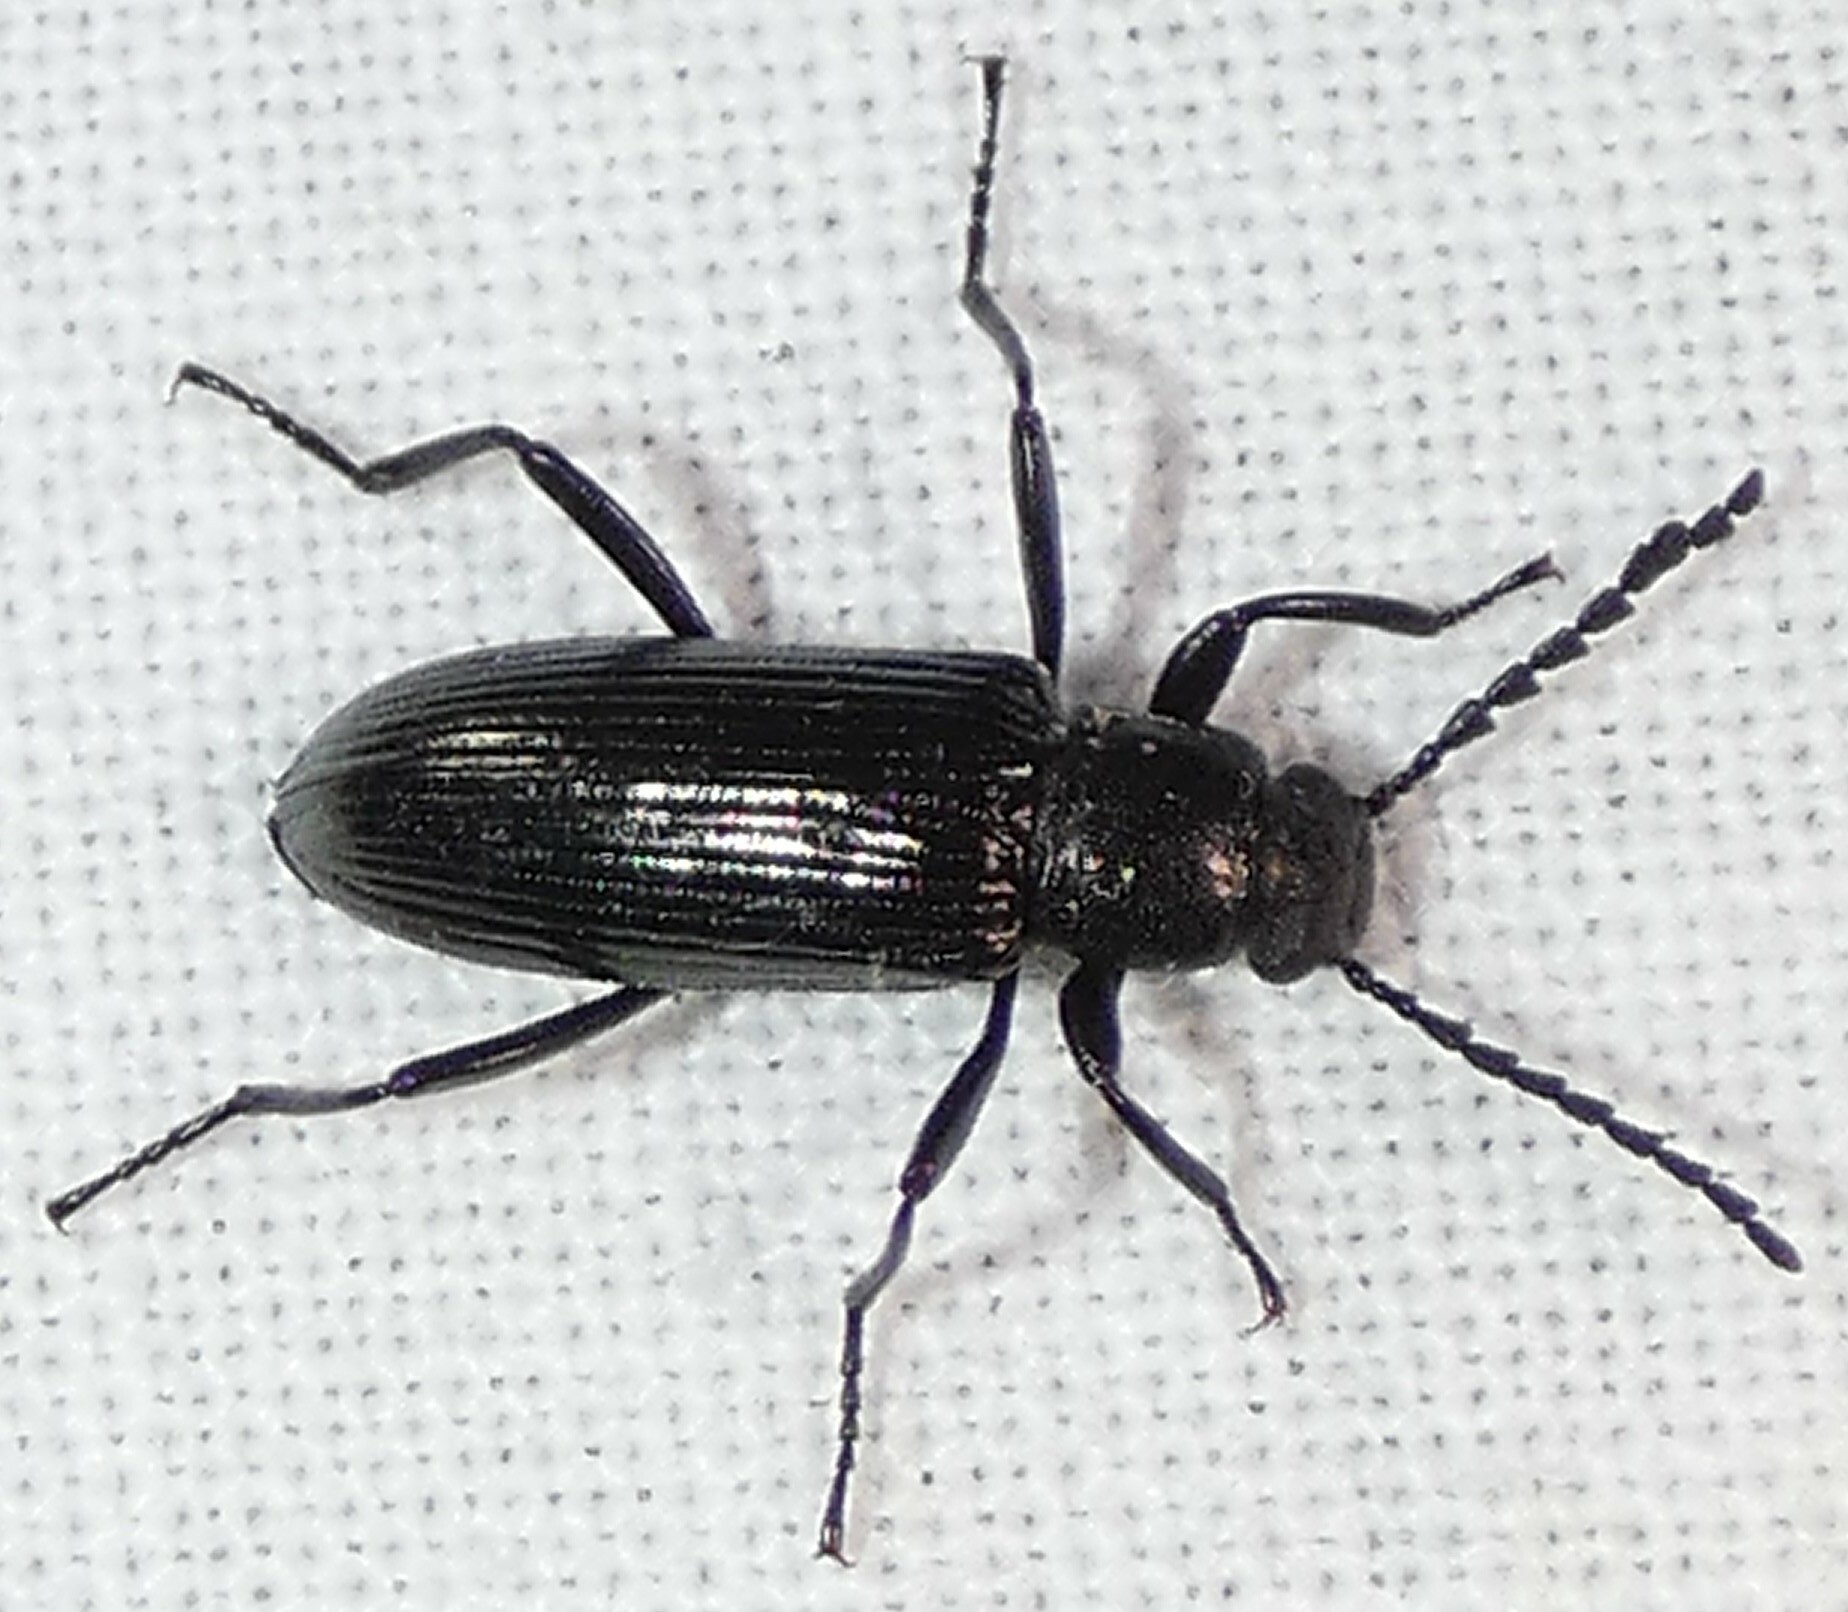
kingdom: Animalia
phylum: Arthropoda
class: Insecta
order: Coleoptera
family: Tenebrionidae
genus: Oploptera
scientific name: Oploptera
